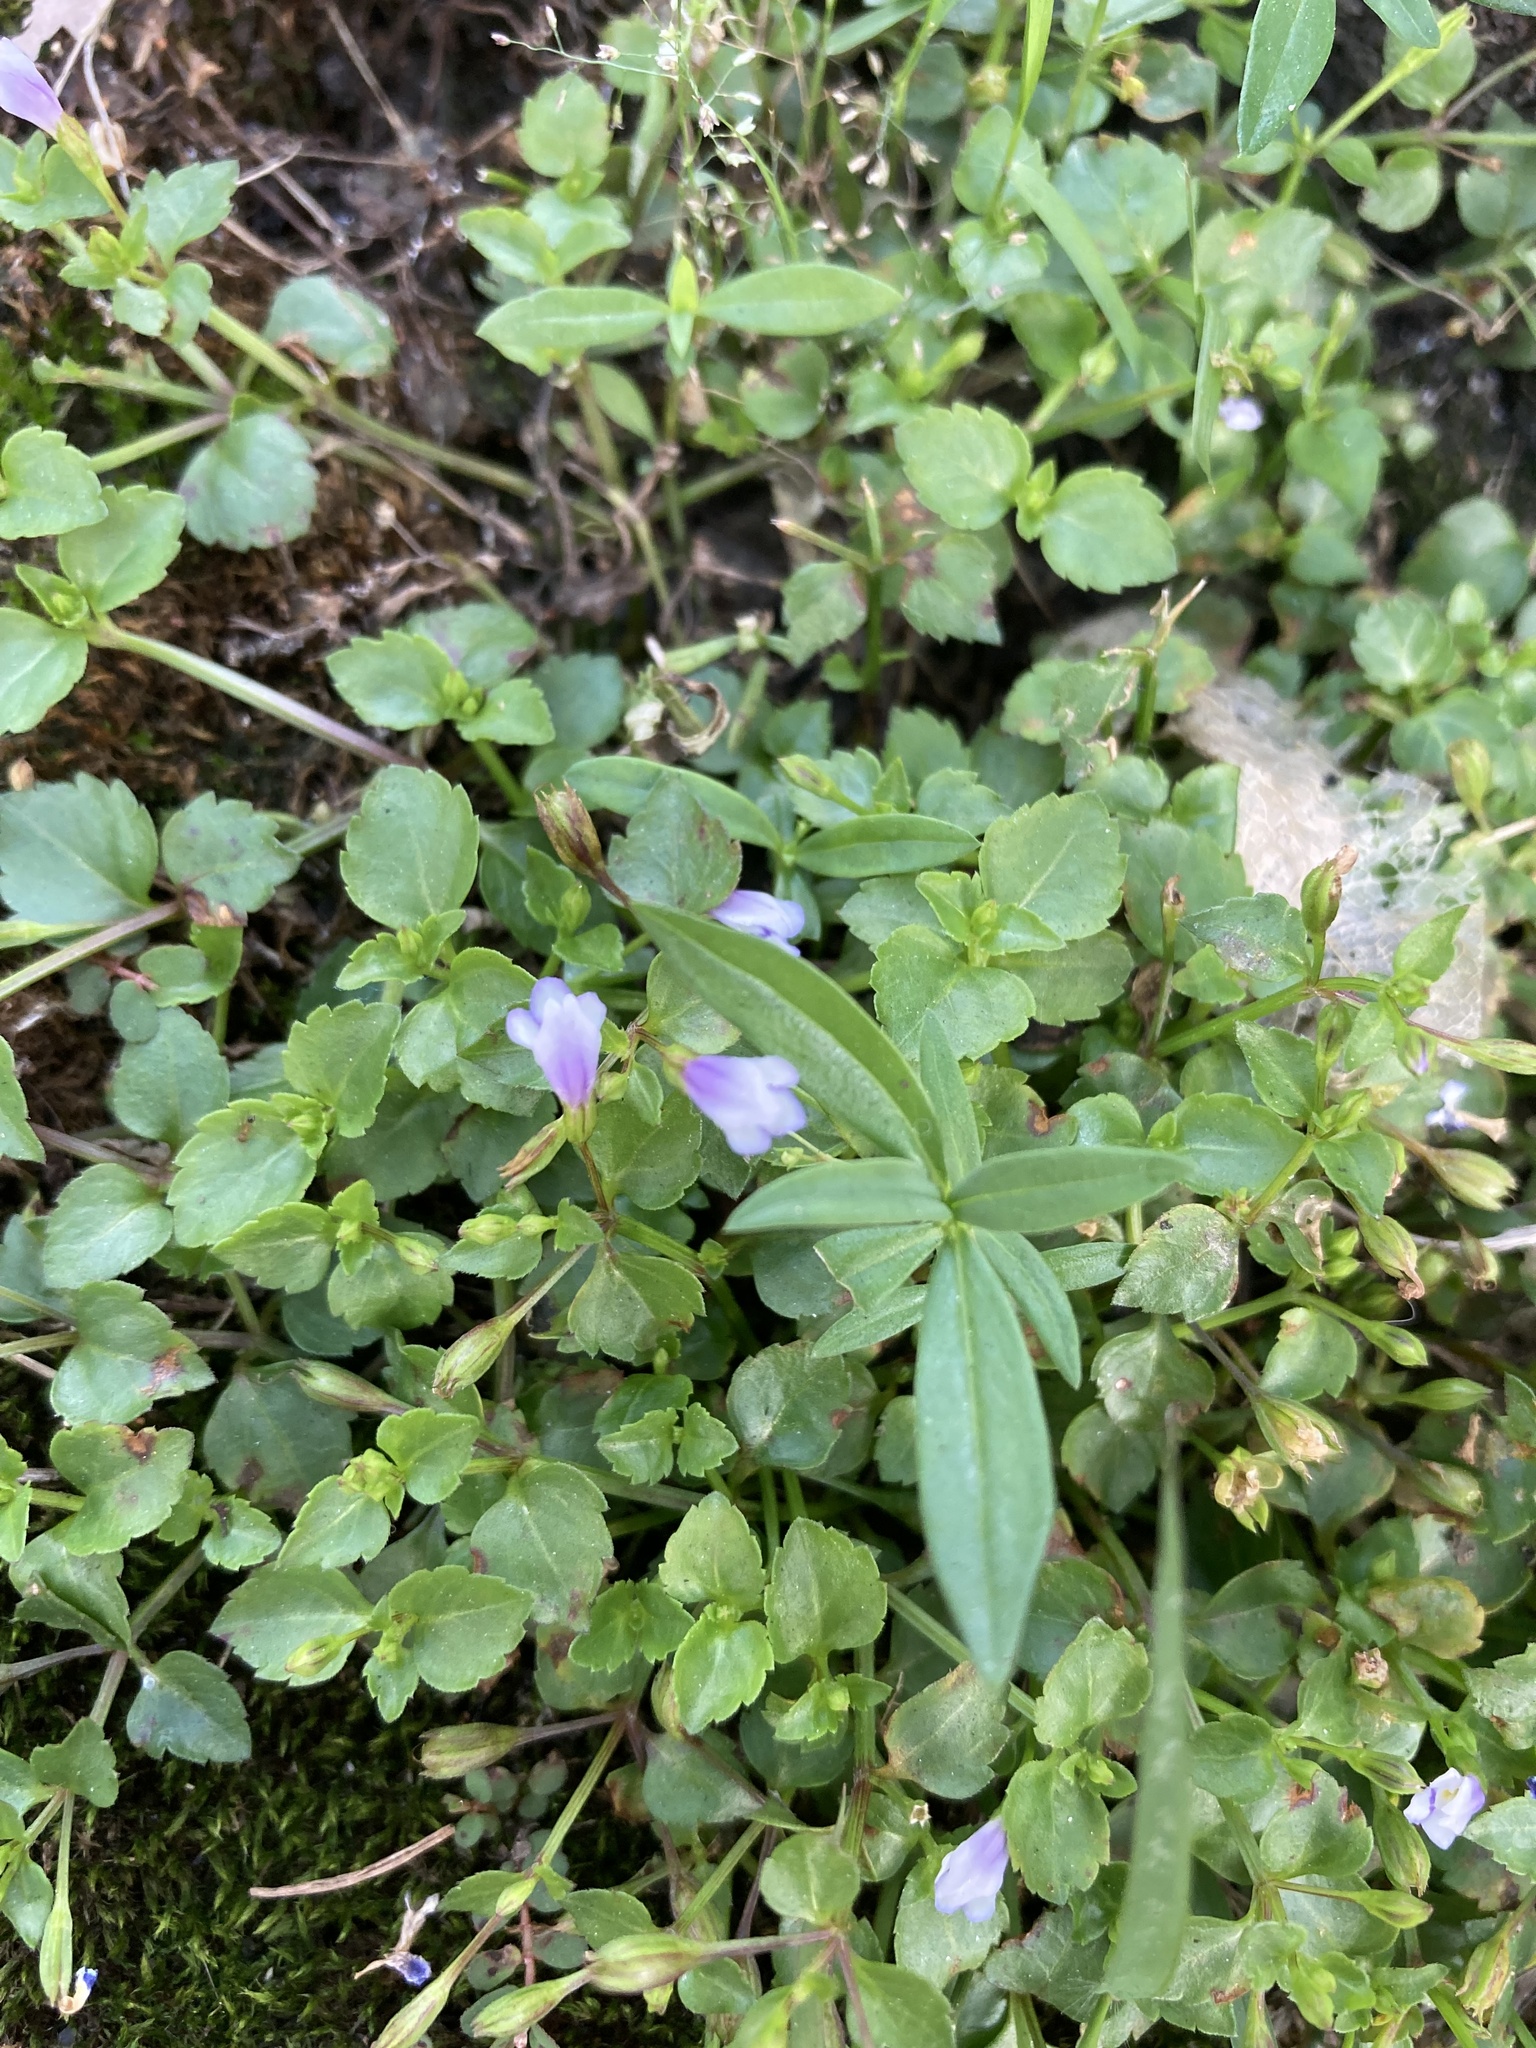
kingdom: Plantae
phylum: Tracheophyta
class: Magnoliopsida
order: Lamiales
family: Linderniaceae
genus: Torenia
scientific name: Torenia crustacea
